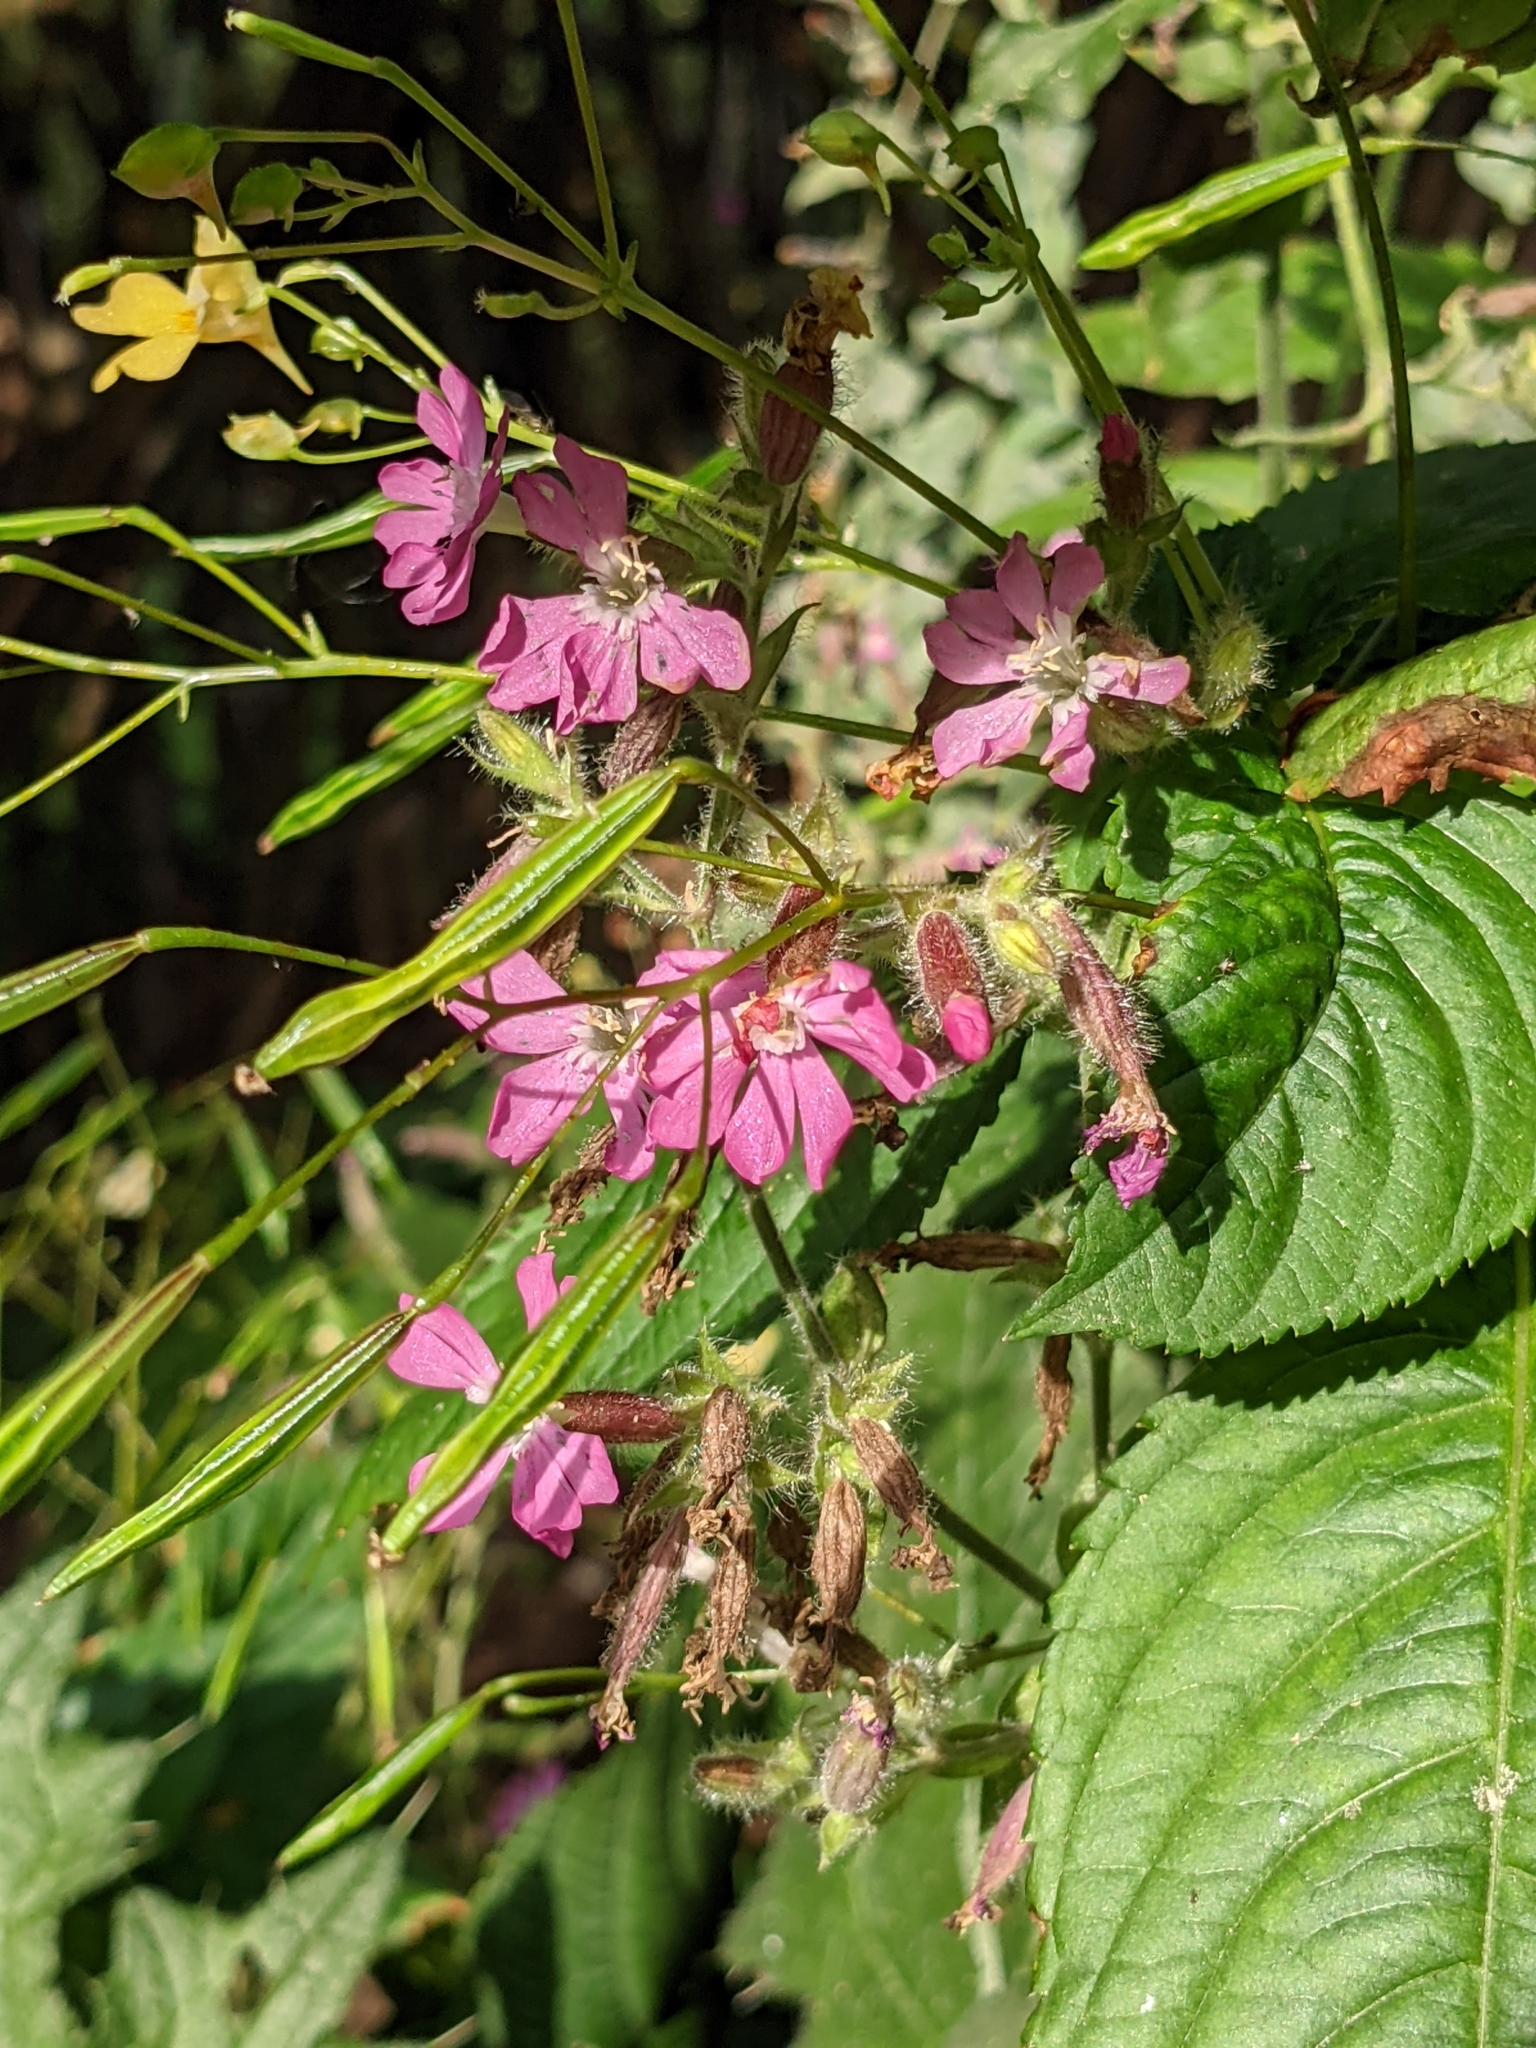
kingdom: Plantae
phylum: Tracheophyta
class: Magnoliopsida
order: Caryophyllales
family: Caryophyllaceae
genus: Silene
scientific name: Silene dioica
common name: Red campion
